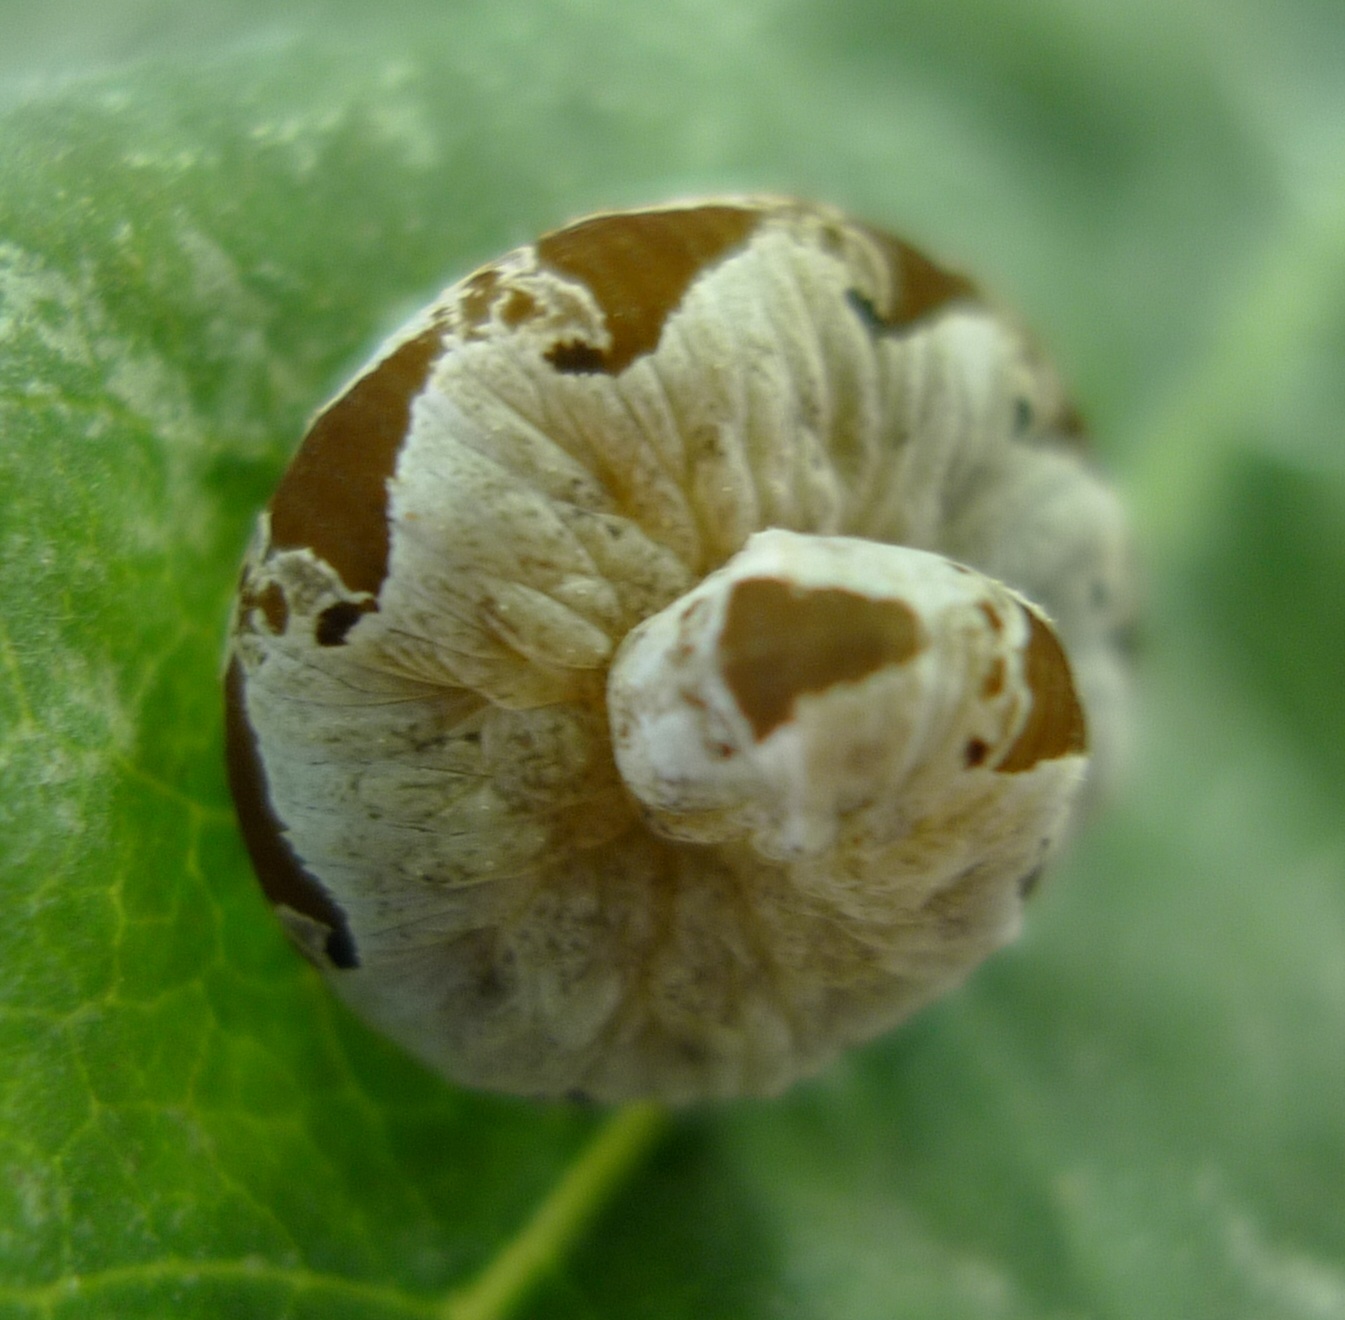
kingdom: Animalia
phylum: Arthropoda
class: Insecta
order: Hymenoptera
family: Tenthredinidae
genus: Tenthredo
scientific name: Tenthredo vespa
